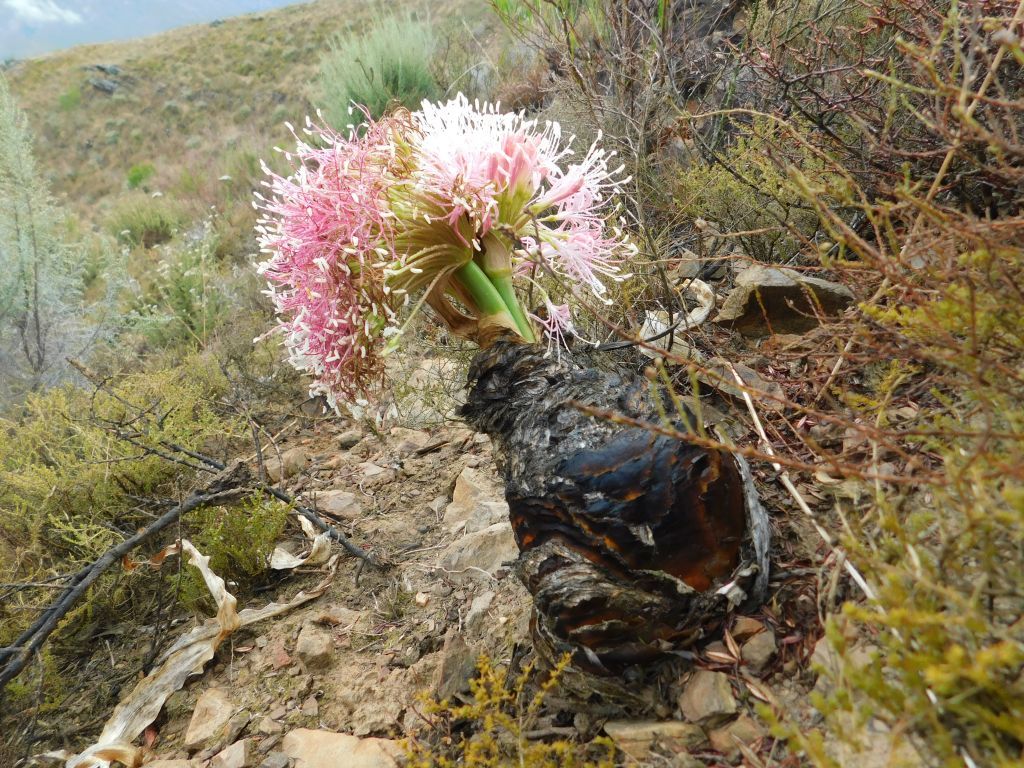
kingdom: Plantae
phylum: Tracheophyta
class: Liliopsida
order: Asparagales
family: Amaryllidaceae
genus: Boophone
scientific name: Boophone disticha
